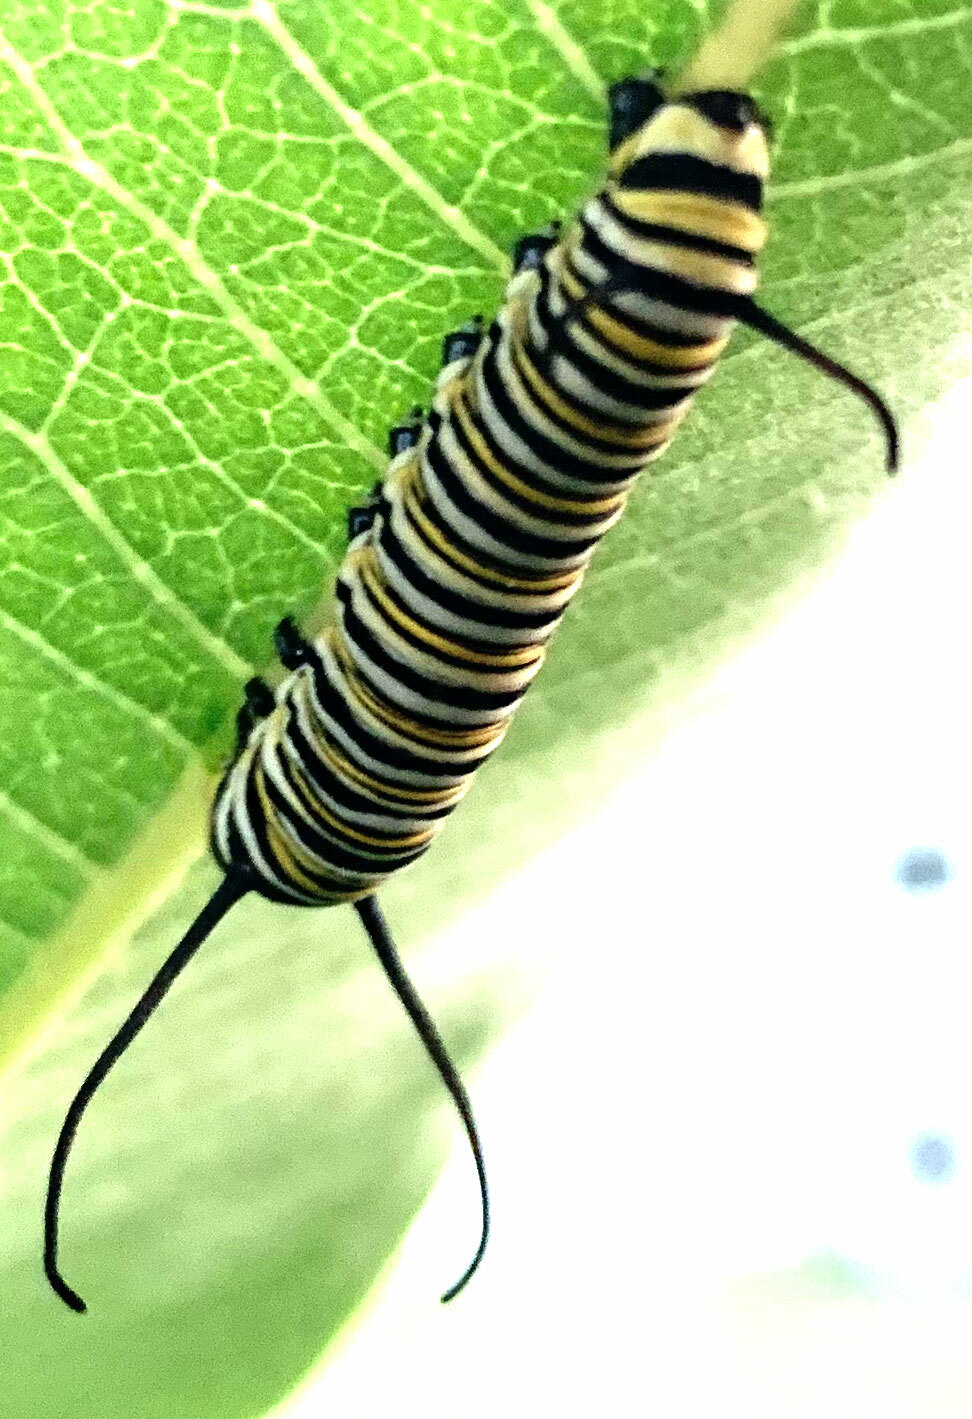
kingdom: Animalia
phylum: Arthropoda
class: Insecta
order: Lepidoptera
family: Nymphalidae
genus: Danaus
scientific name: Danaus plexippus
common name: Monarch
